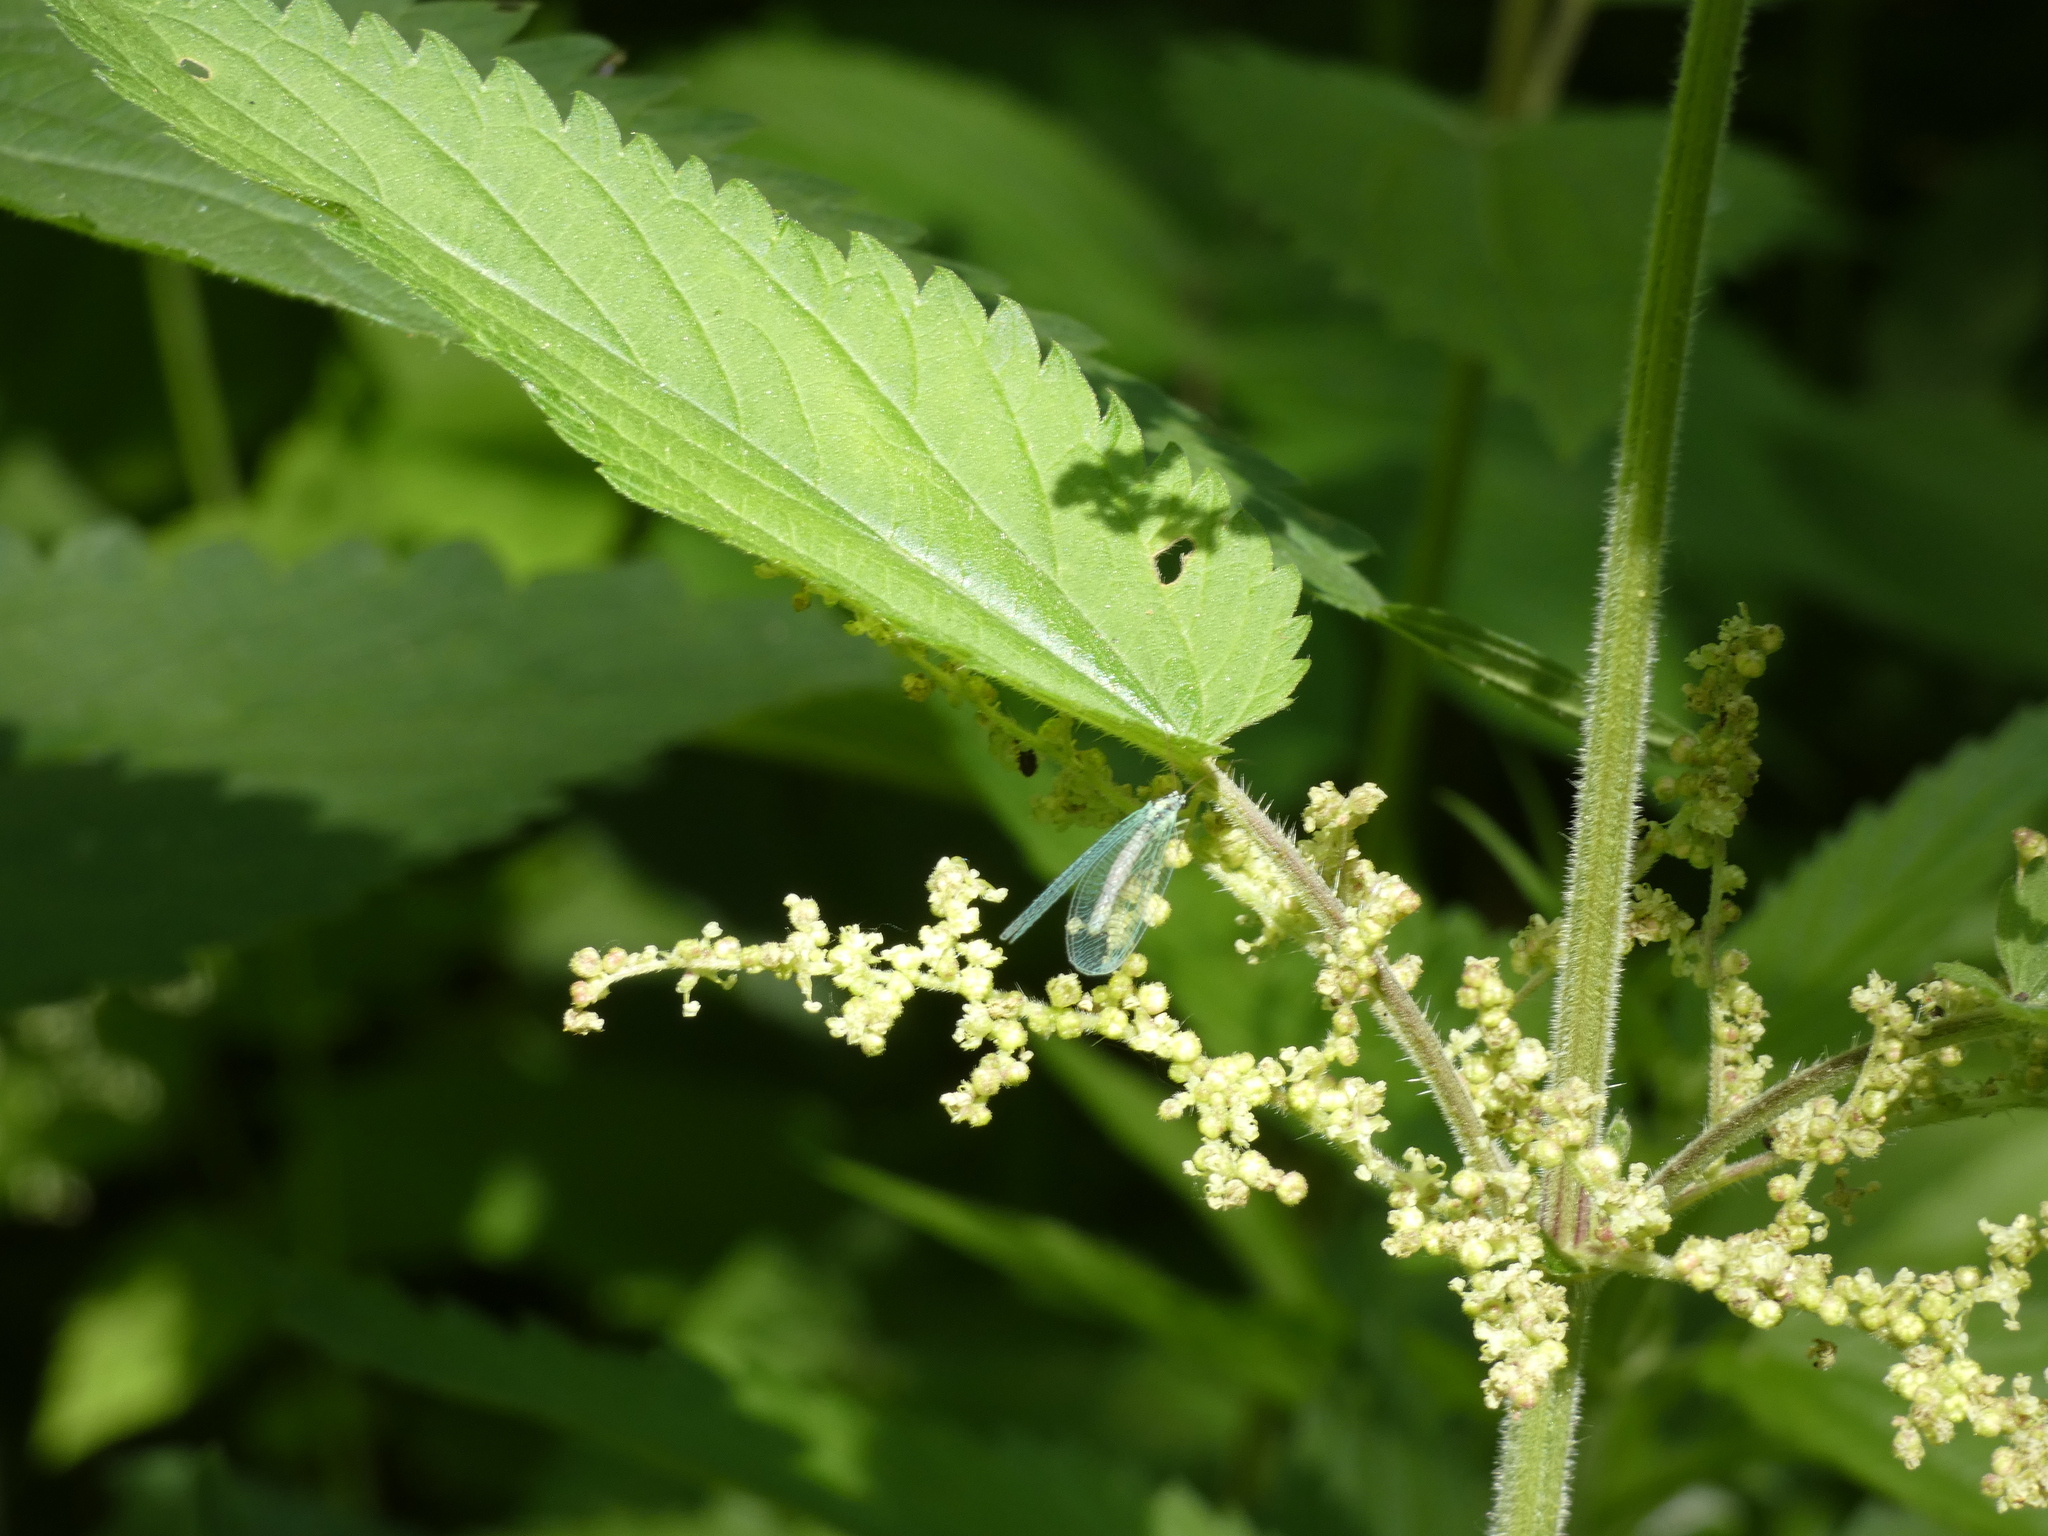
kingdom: Animalia
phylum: Arthropoda
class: Insecta
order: Neuroptera
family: Chrysopidae
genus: Chrysopa
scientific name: Chrysopa perla
